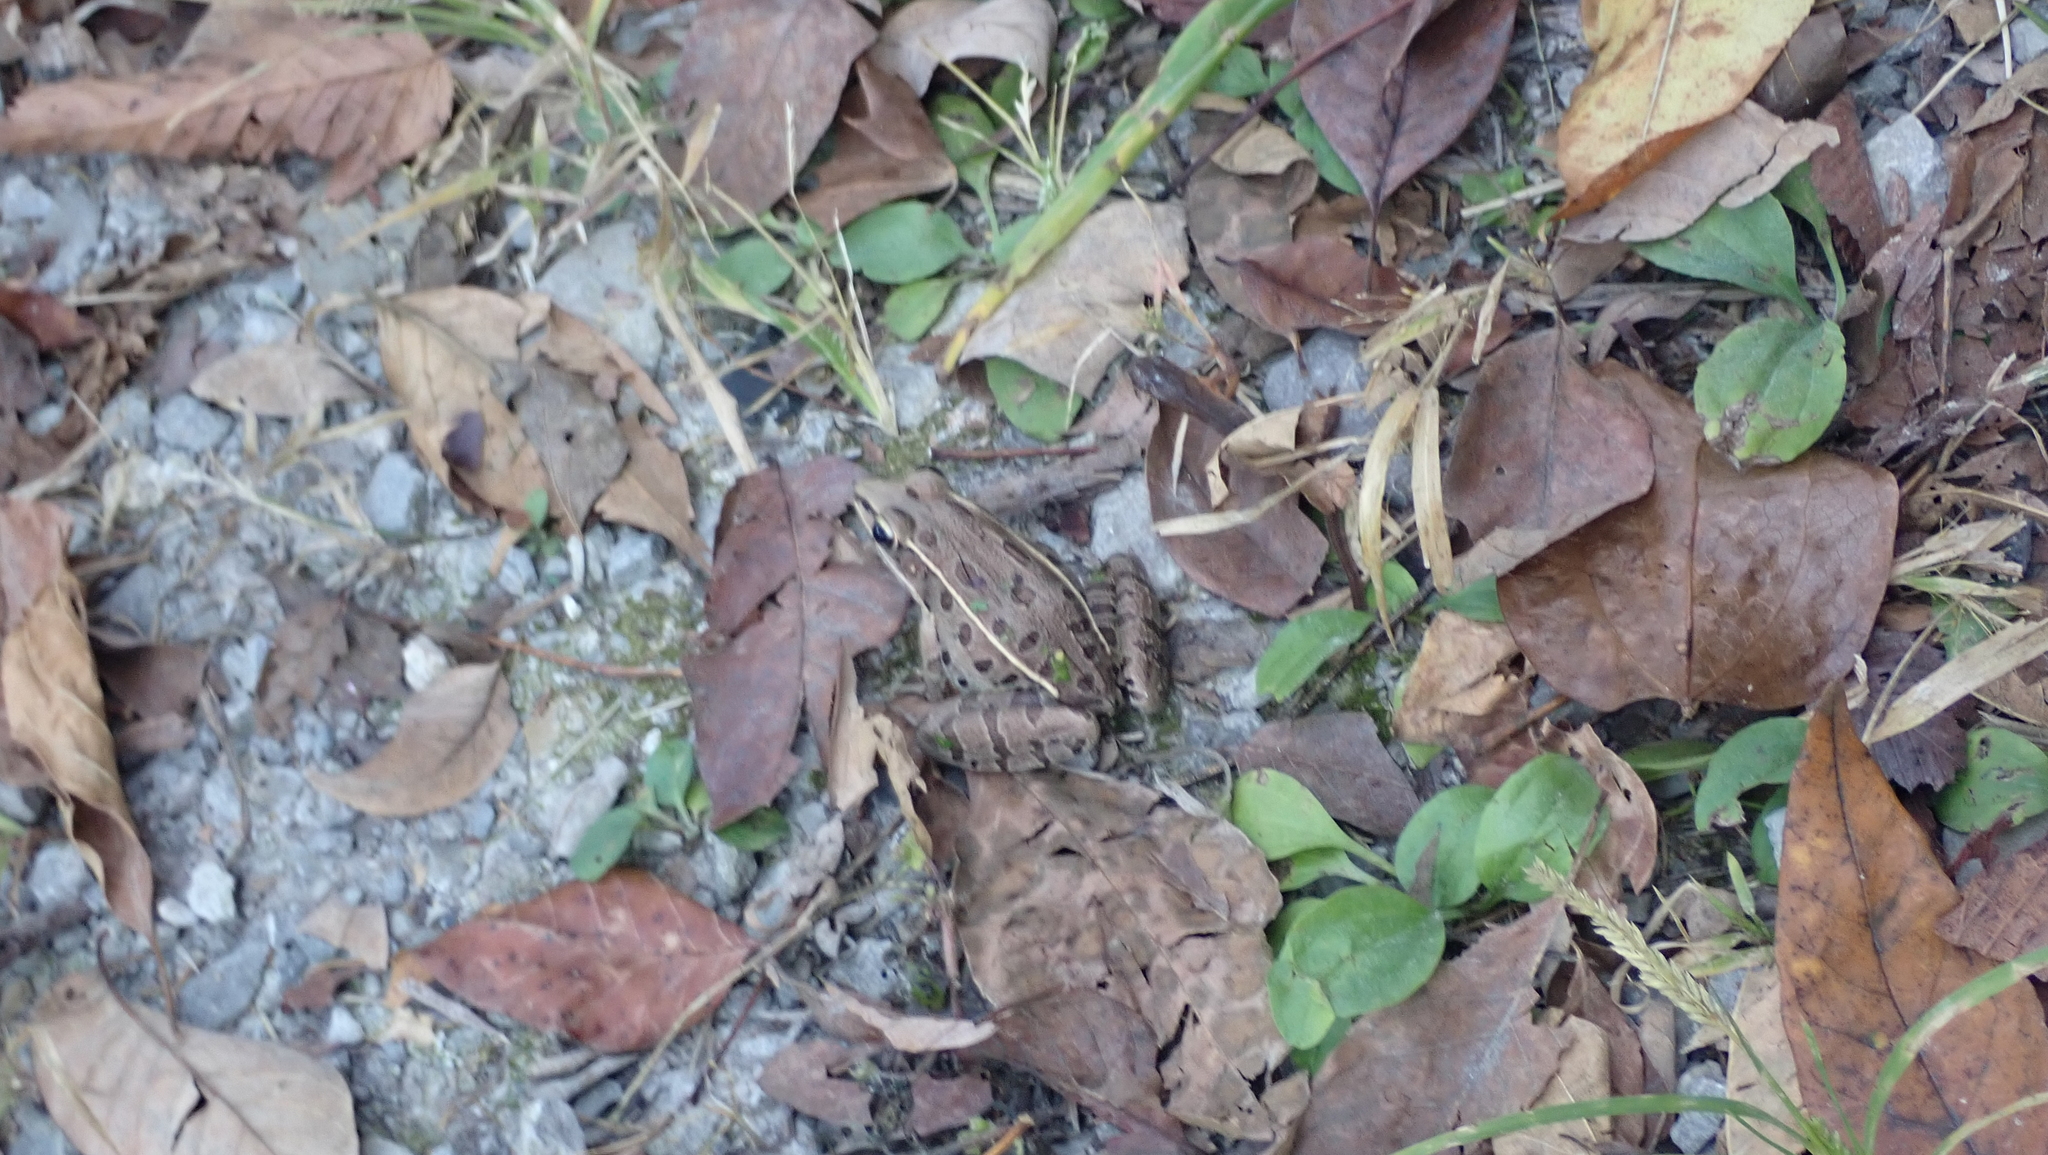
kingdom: Animalia
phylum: Chordata
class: Amphibia
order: Anura
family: Ranidae
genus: Lithobates
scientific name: Lithobates sphenocephalus
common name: Southern leopard frog
